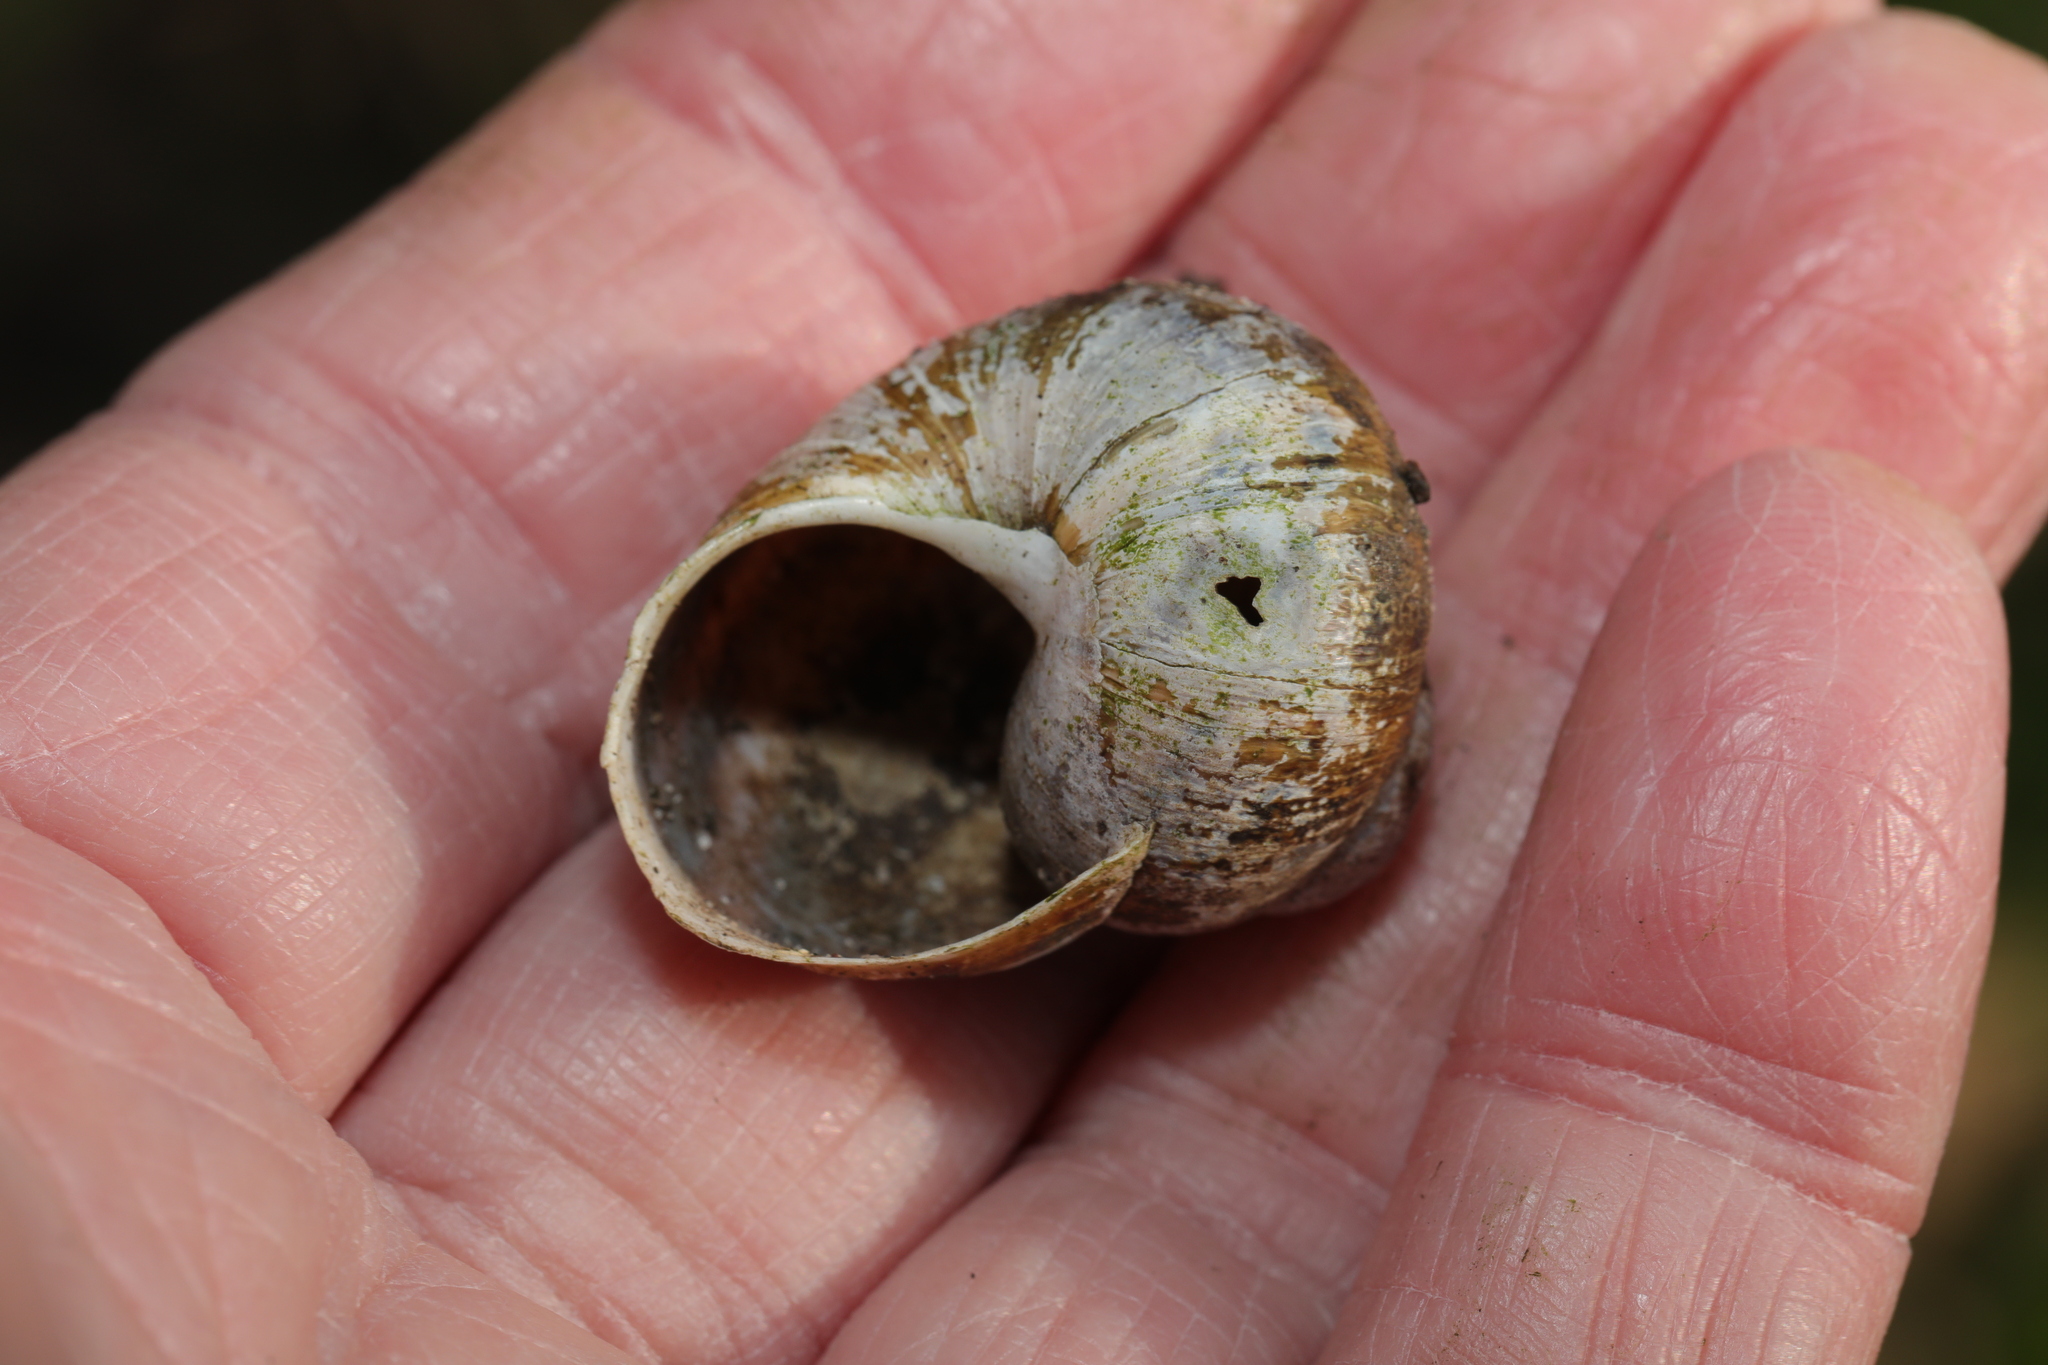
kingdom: Animalia
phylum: Mollusca
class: Gastropoda
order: Stylommatophora
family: Helicidae
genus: Cornu
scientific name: Cornu aspersum
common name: Brown garden snail
